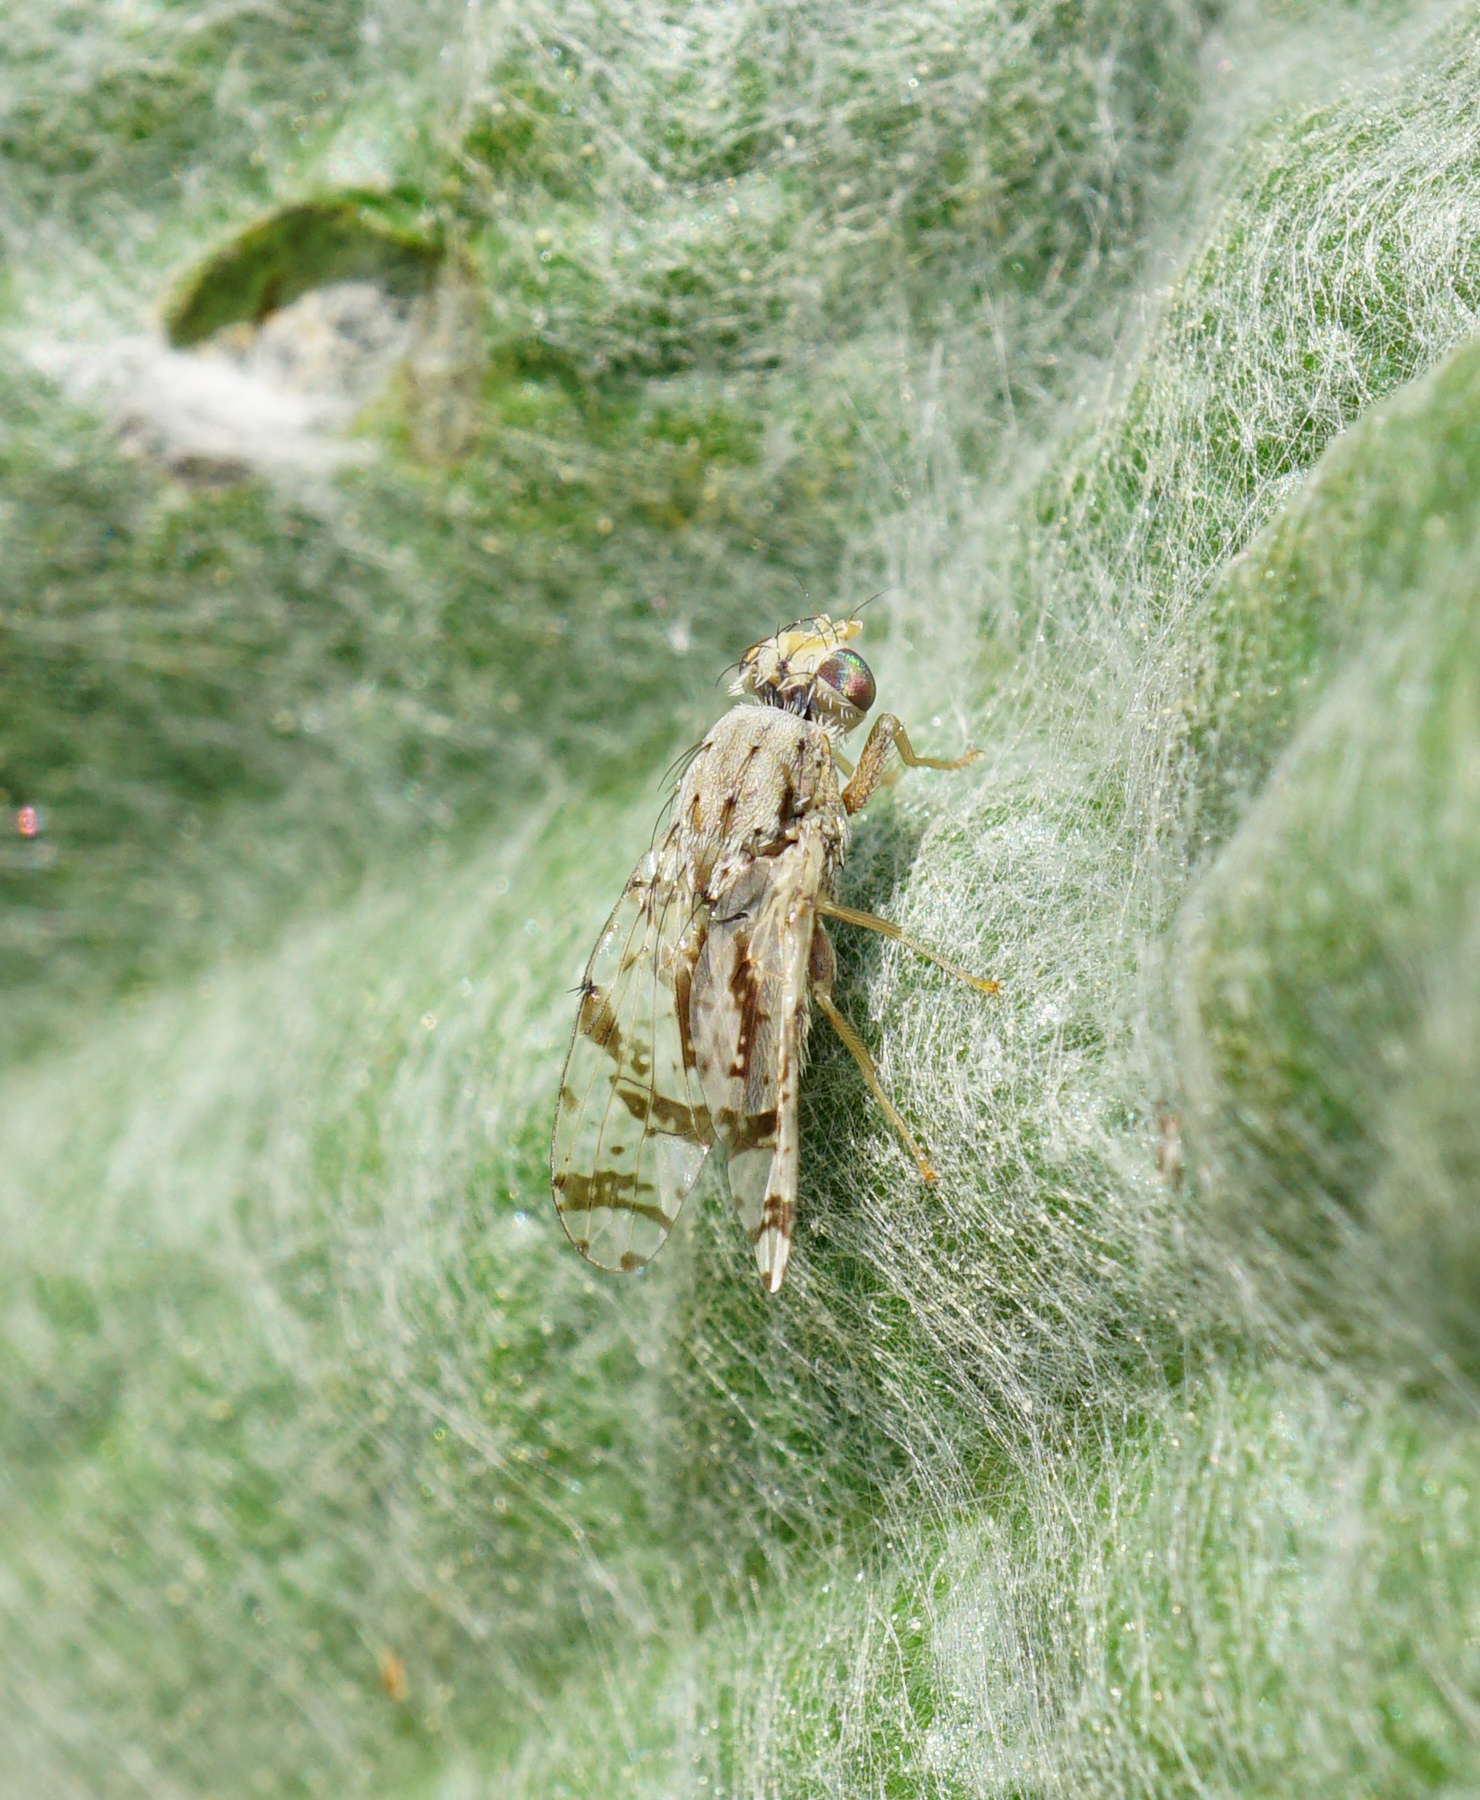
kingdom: Animalia
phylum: Arthropoda
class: Insecta
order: Diptera
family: Tephritidae
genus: Tephritis
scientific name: Tephritis postica
